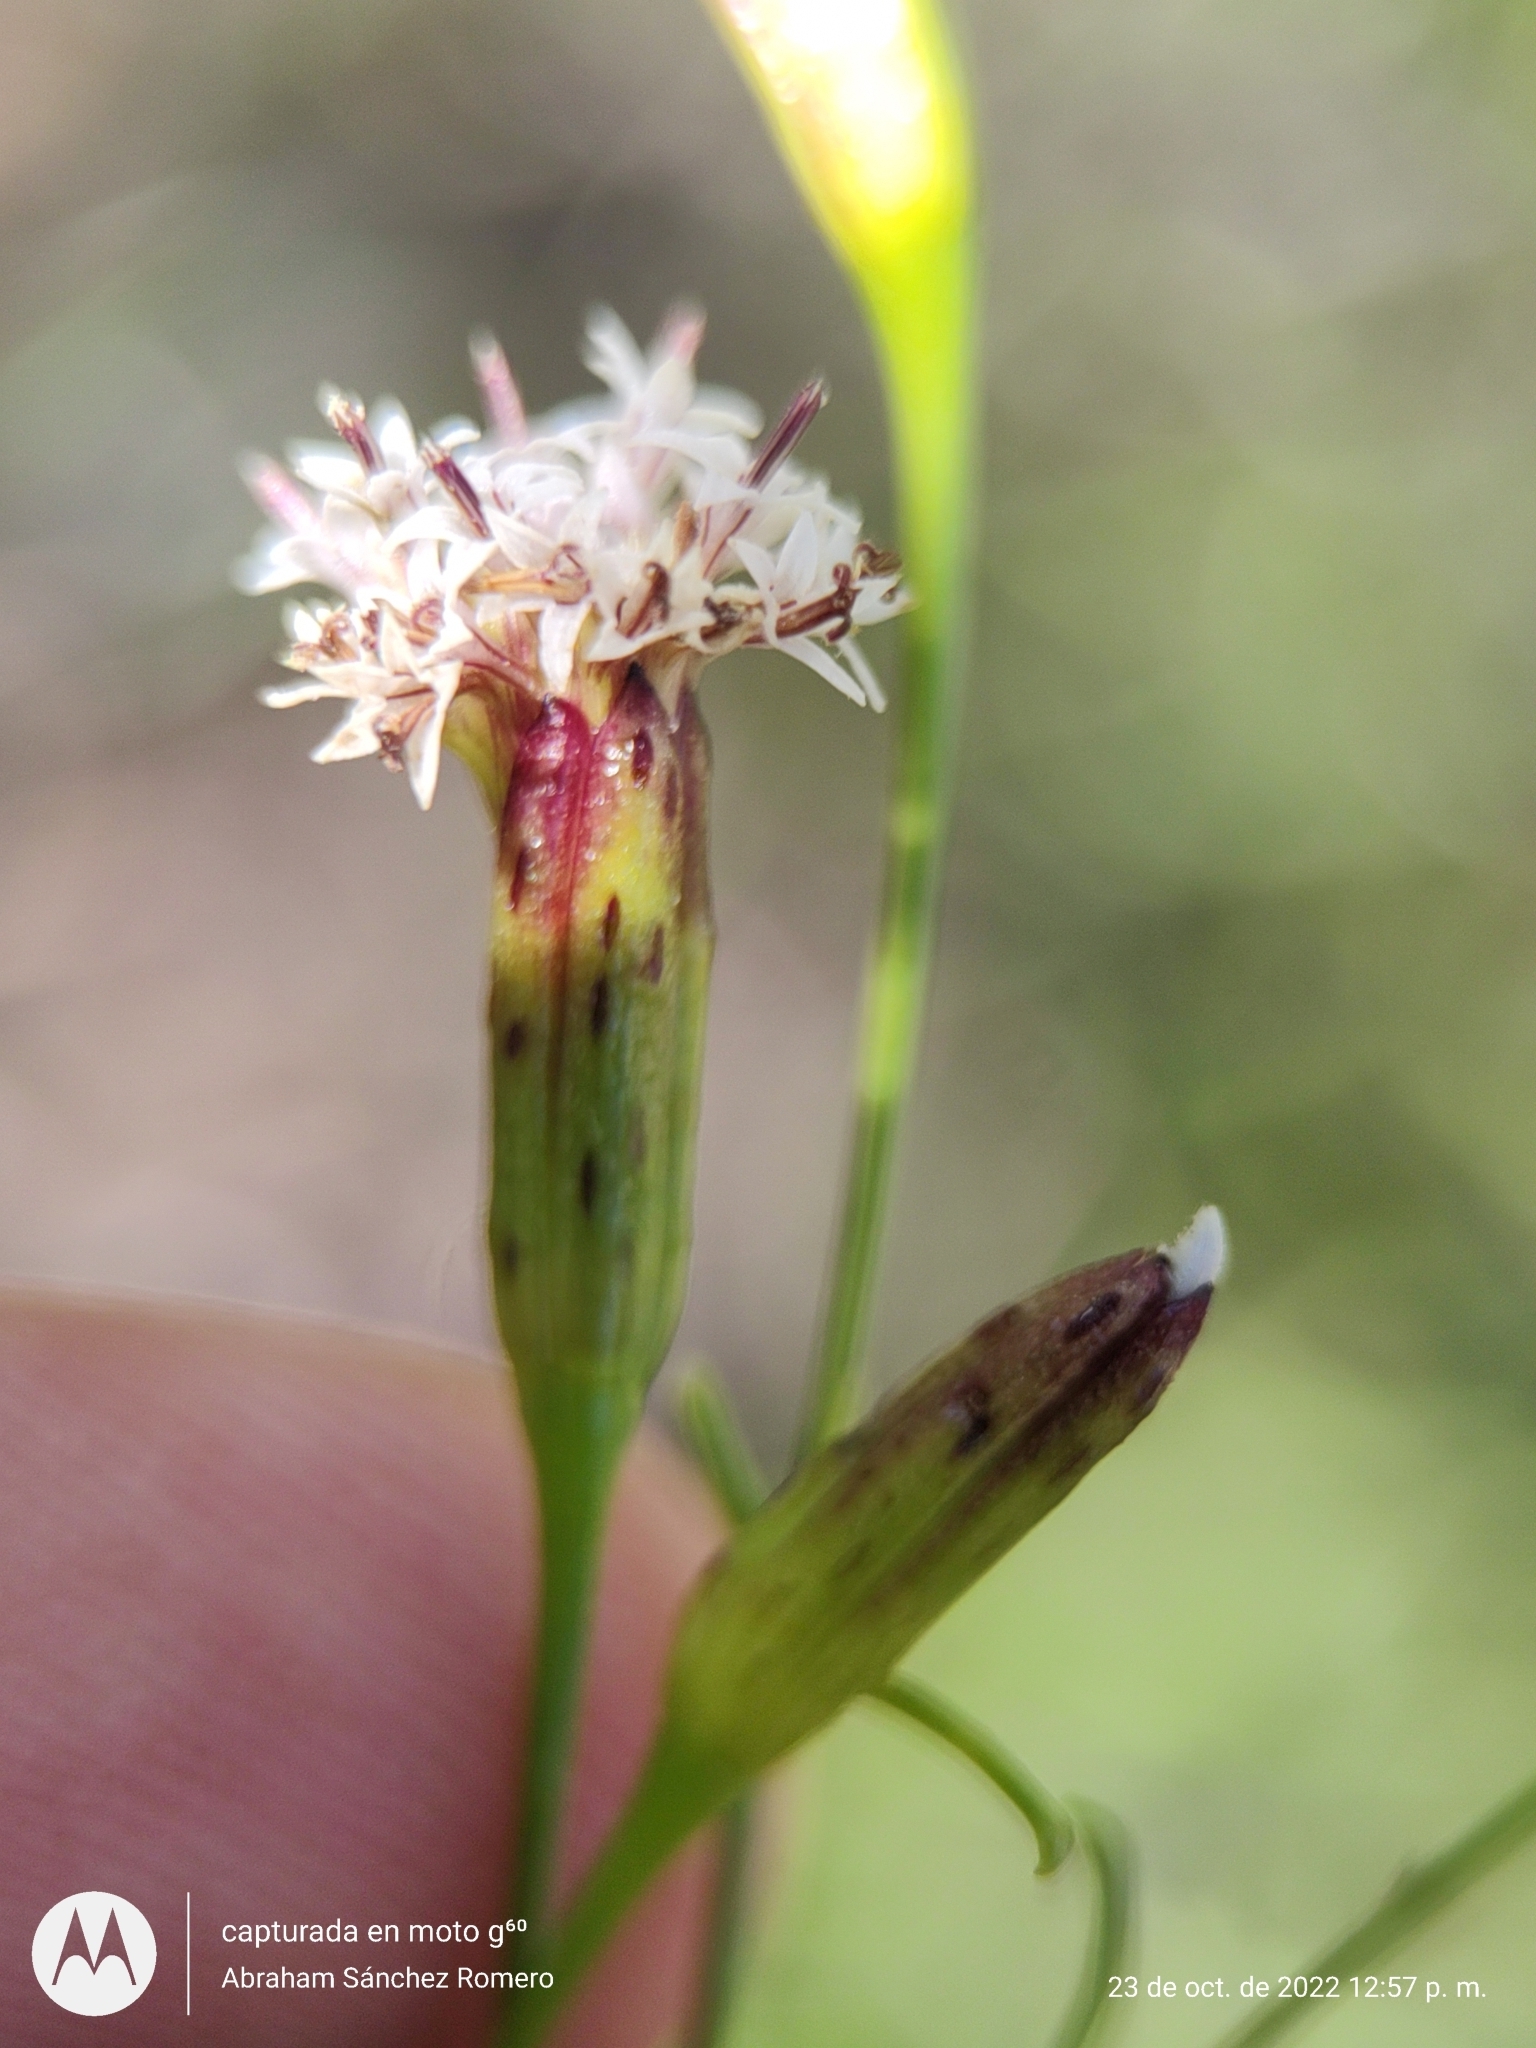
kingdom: Plantae
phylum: Tracheophyta
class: Magnoliopsida
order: Asterales
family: Asteraceae
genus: Porophyllum
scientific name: Porophyllum gracile
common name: Odora
